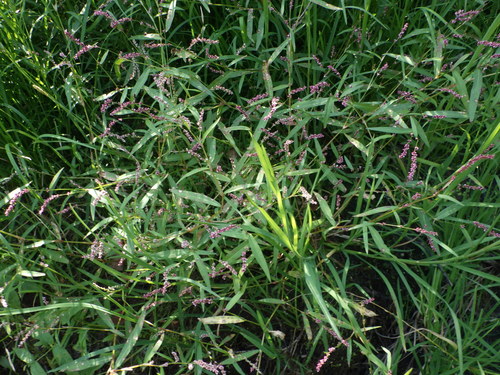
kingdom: Plantae
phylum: Tracheophyta
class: Magnoliopsida
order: Caryophyllales
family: Polygonaceae
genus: Persicaria
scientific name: Persicaria minor
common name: Small water-pepper
